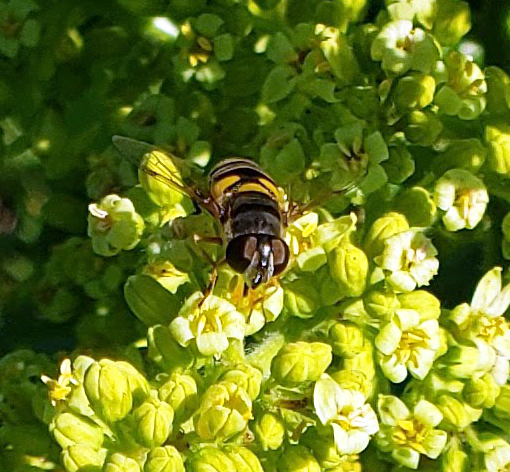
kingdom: Animalia
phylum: Arthropoda
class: Insecta
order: Diptera
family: Syrphidae
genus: Eristalis
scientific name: Eristalis transversa
